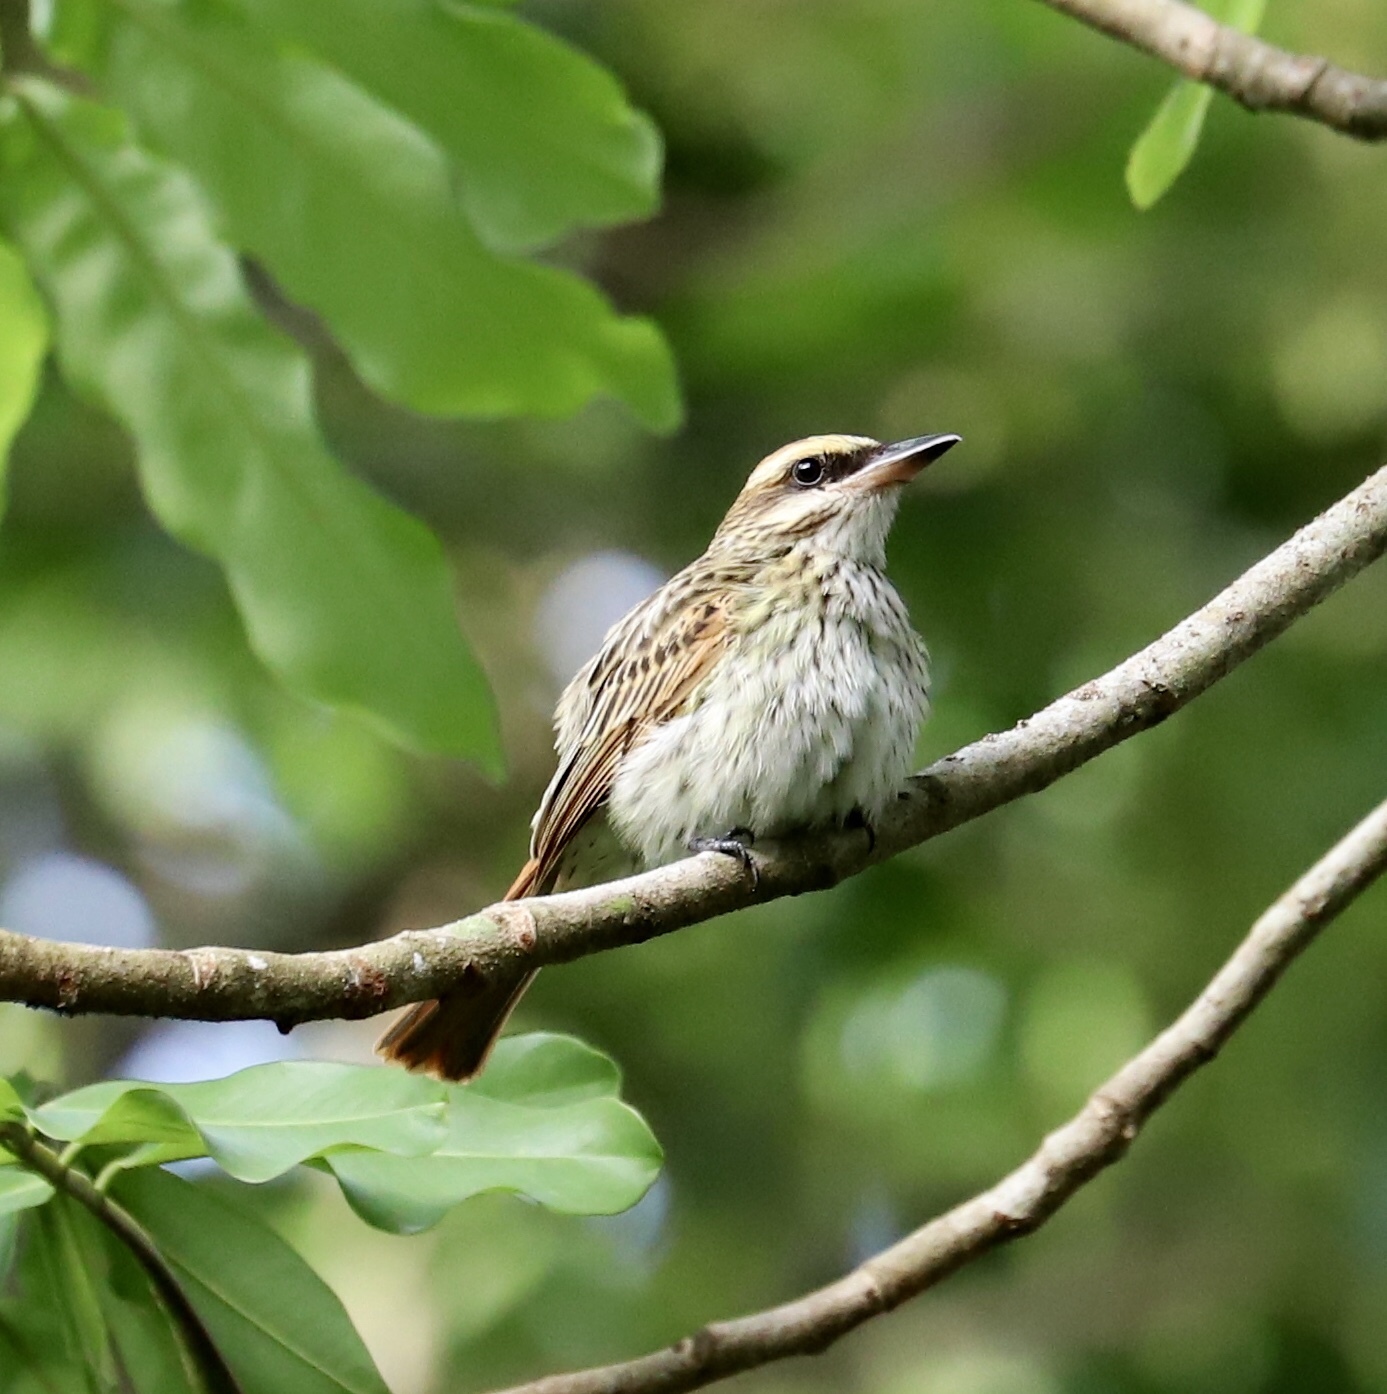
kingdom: Animalia
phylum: Chordata
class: Aves
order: Passeriformes
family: Tyrannidae
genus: Myiodynastes
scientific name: Myiodynastes maculatus
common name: Streaked flycatcher
